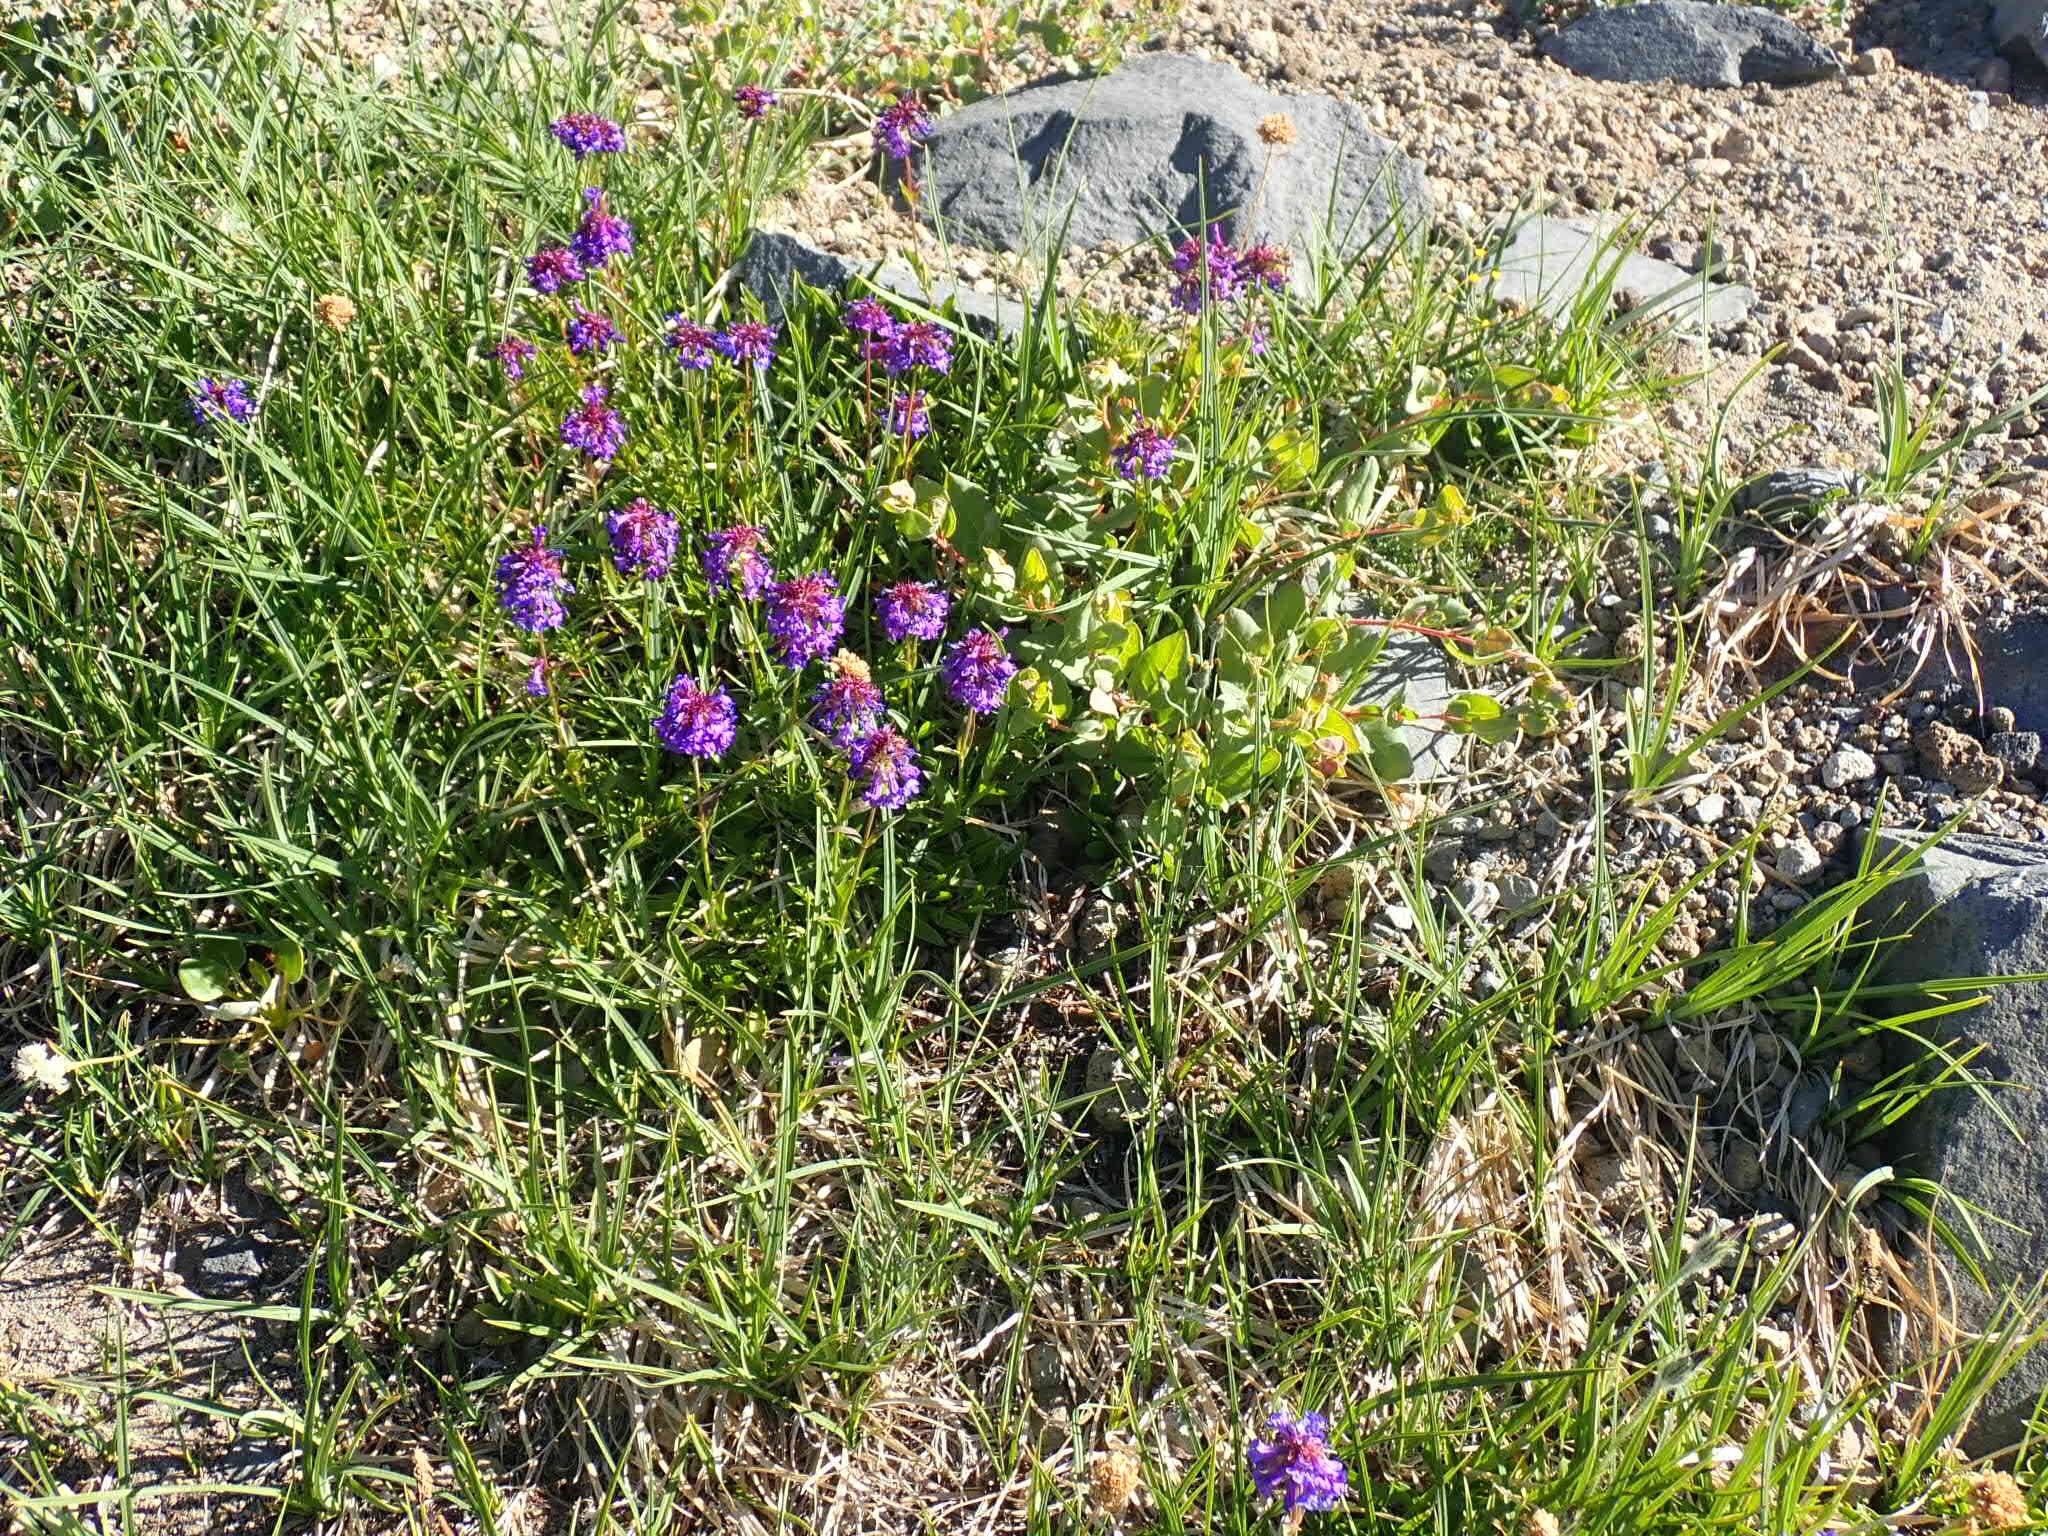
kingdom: Plantae
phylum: Tracheophyta
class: Magnoliopsida
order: Lamiales
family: Plantaginaceae
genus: Penstemon
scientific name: Penstemon procerus
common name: Small-flower penstemon
